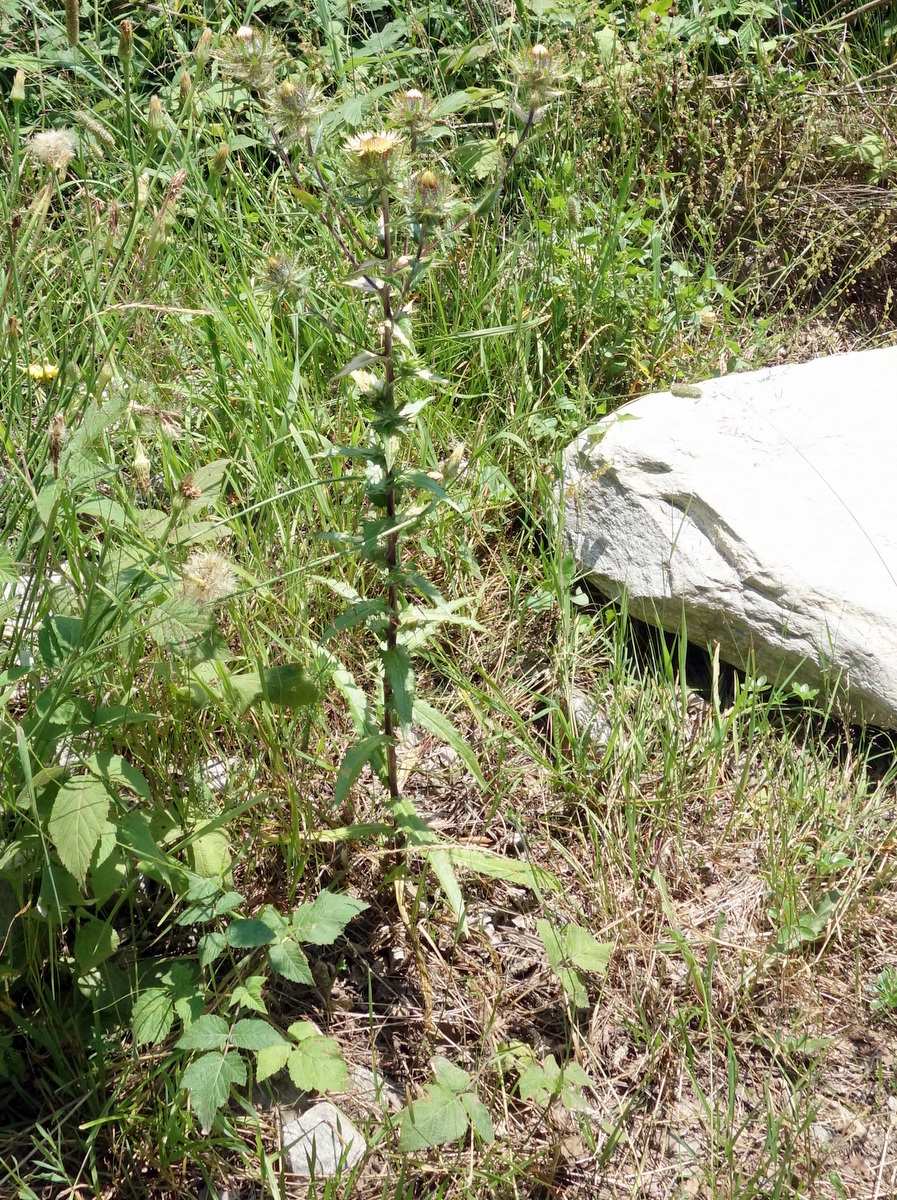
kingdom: Plantae
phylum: Tracheophyta
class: Magnoliopsida
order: Asterales
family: Asteraceae
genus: Carlina
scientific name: Carlina vulgaris
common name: Carline thistle
